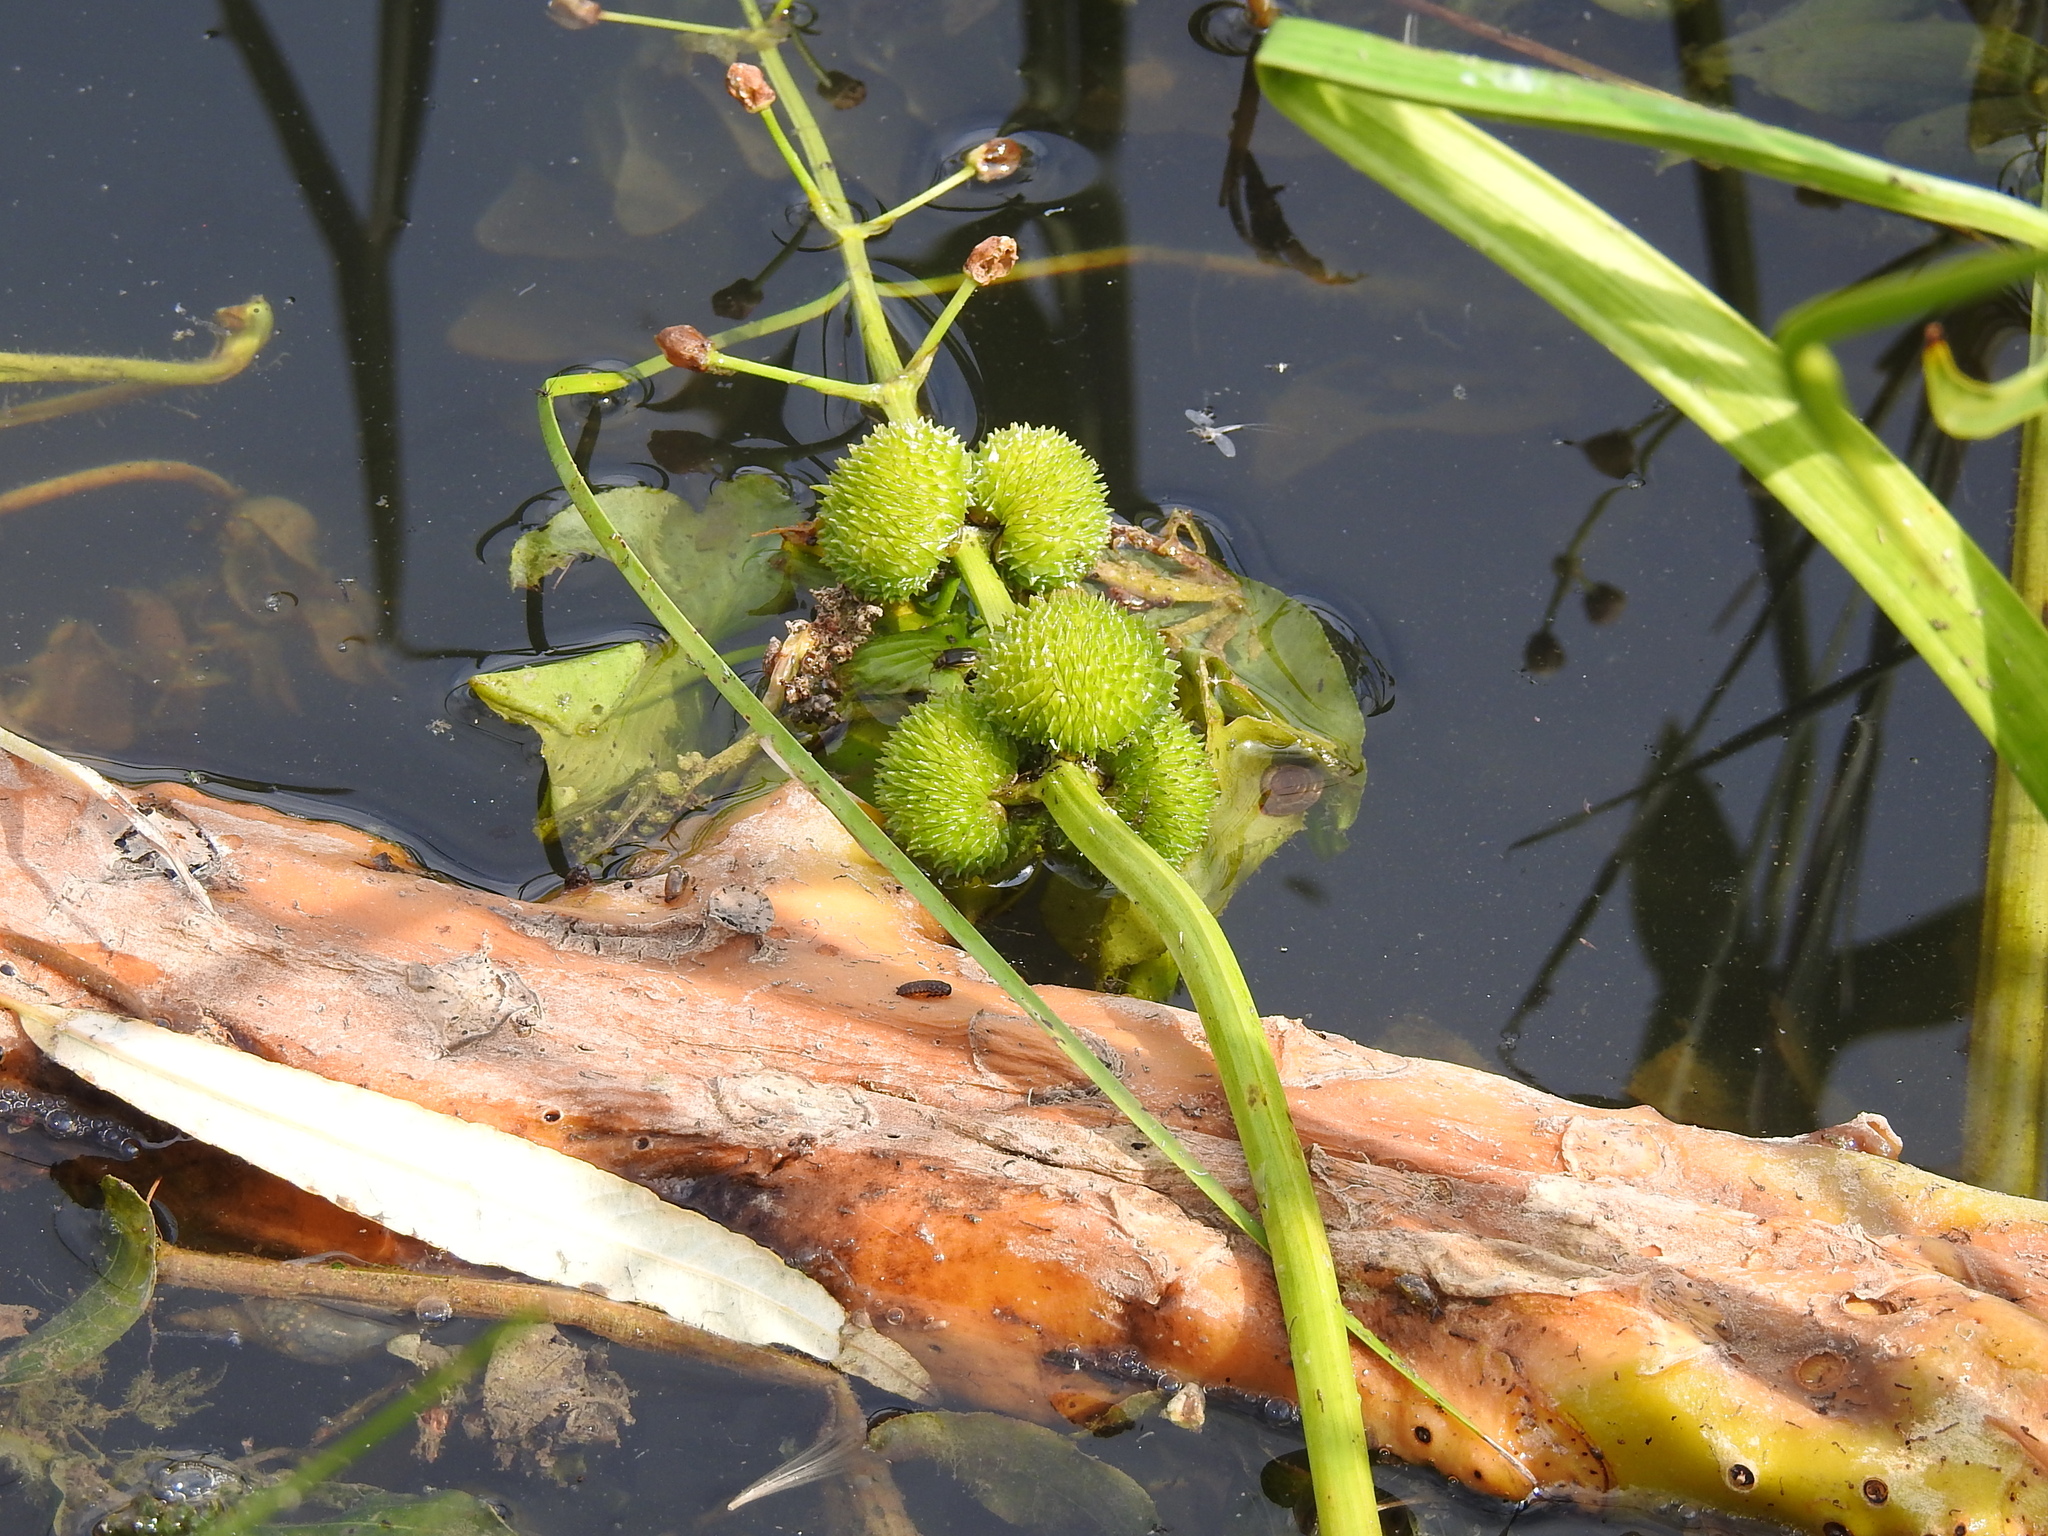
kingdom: Plantae
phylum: Tracheophyta
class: Liliopsida
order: Alismatales
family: Alismataceae
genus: Sagittaria
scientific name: Sagittaria sagittifolia
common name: Arrowhead
